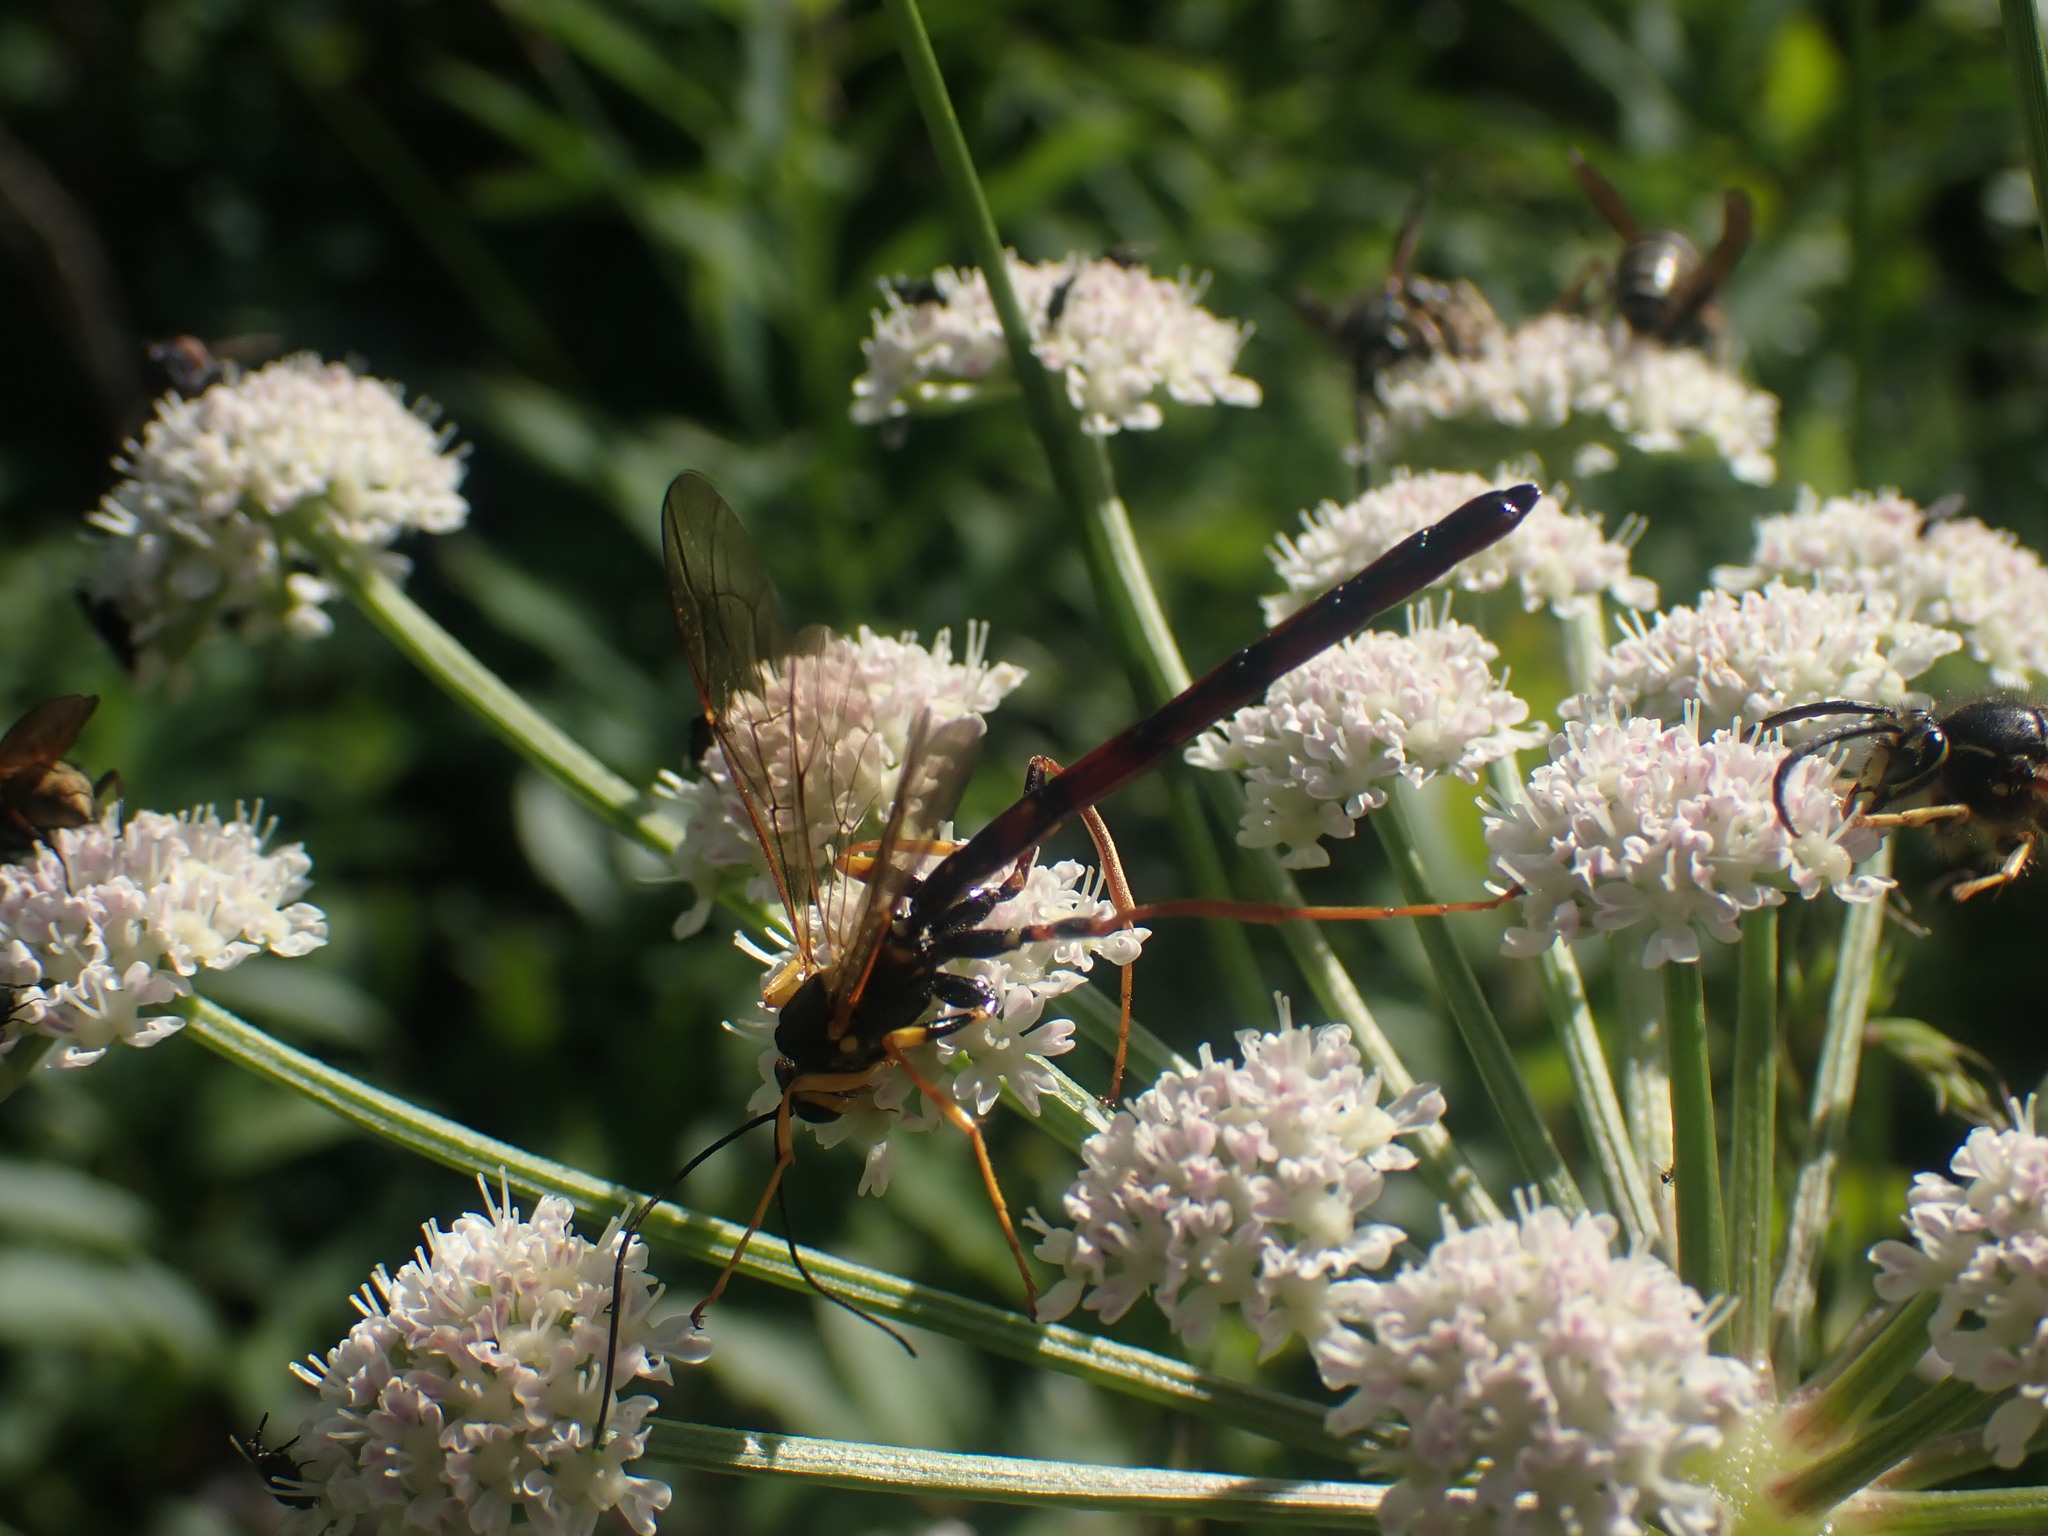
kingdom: Animalia
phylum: Arthropoda
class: Insecta
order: Hymenoptera
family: Ichneumonidae
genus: Megarhyssa
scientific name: Megarhyssa nortoni
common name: Norton's giant ichneumonid wasp
